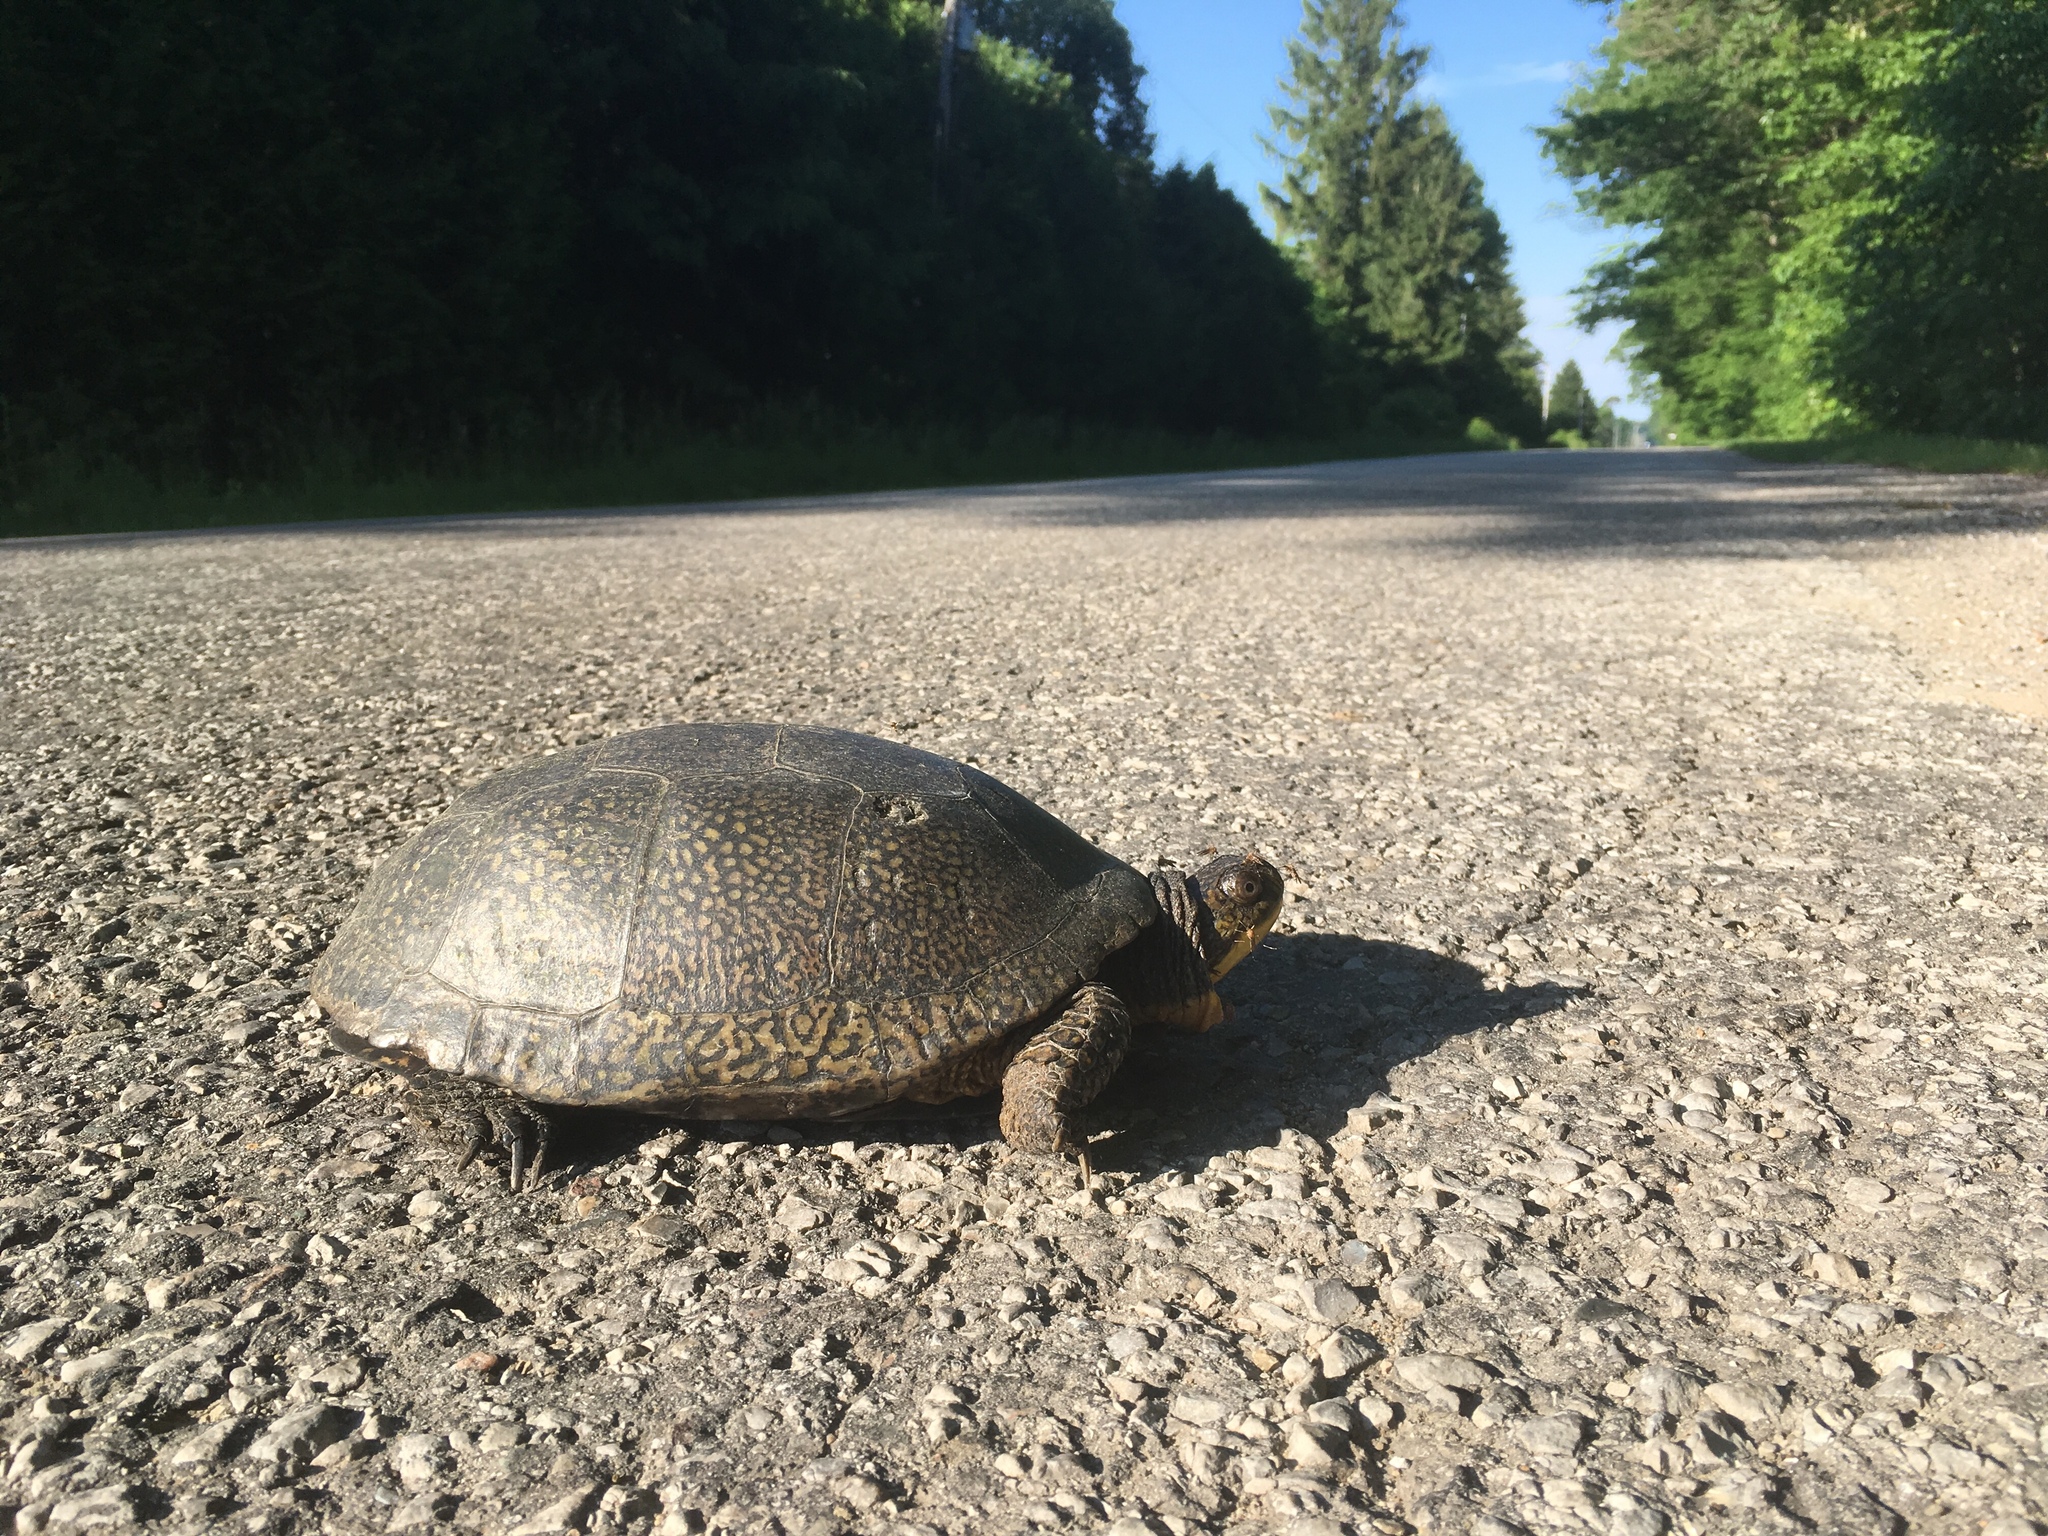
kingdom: Animalia
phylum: Chordata
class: Testudines
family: Emydidae
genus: Emys
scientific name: Emys blandingii
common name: Blanding's turtle
